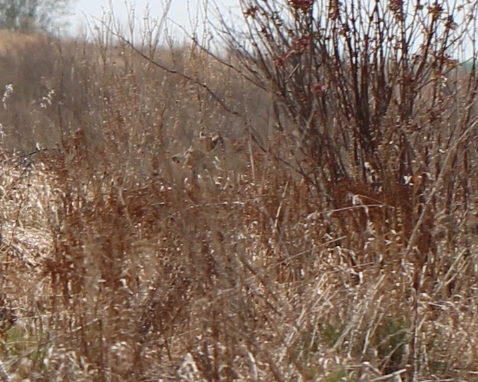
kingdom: Animalia
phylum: Chordata
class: Mammalia
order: Artiodactyla
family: Cervidae
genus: Capreolus
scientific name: Capreolus capreolus
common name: Western roe deer
